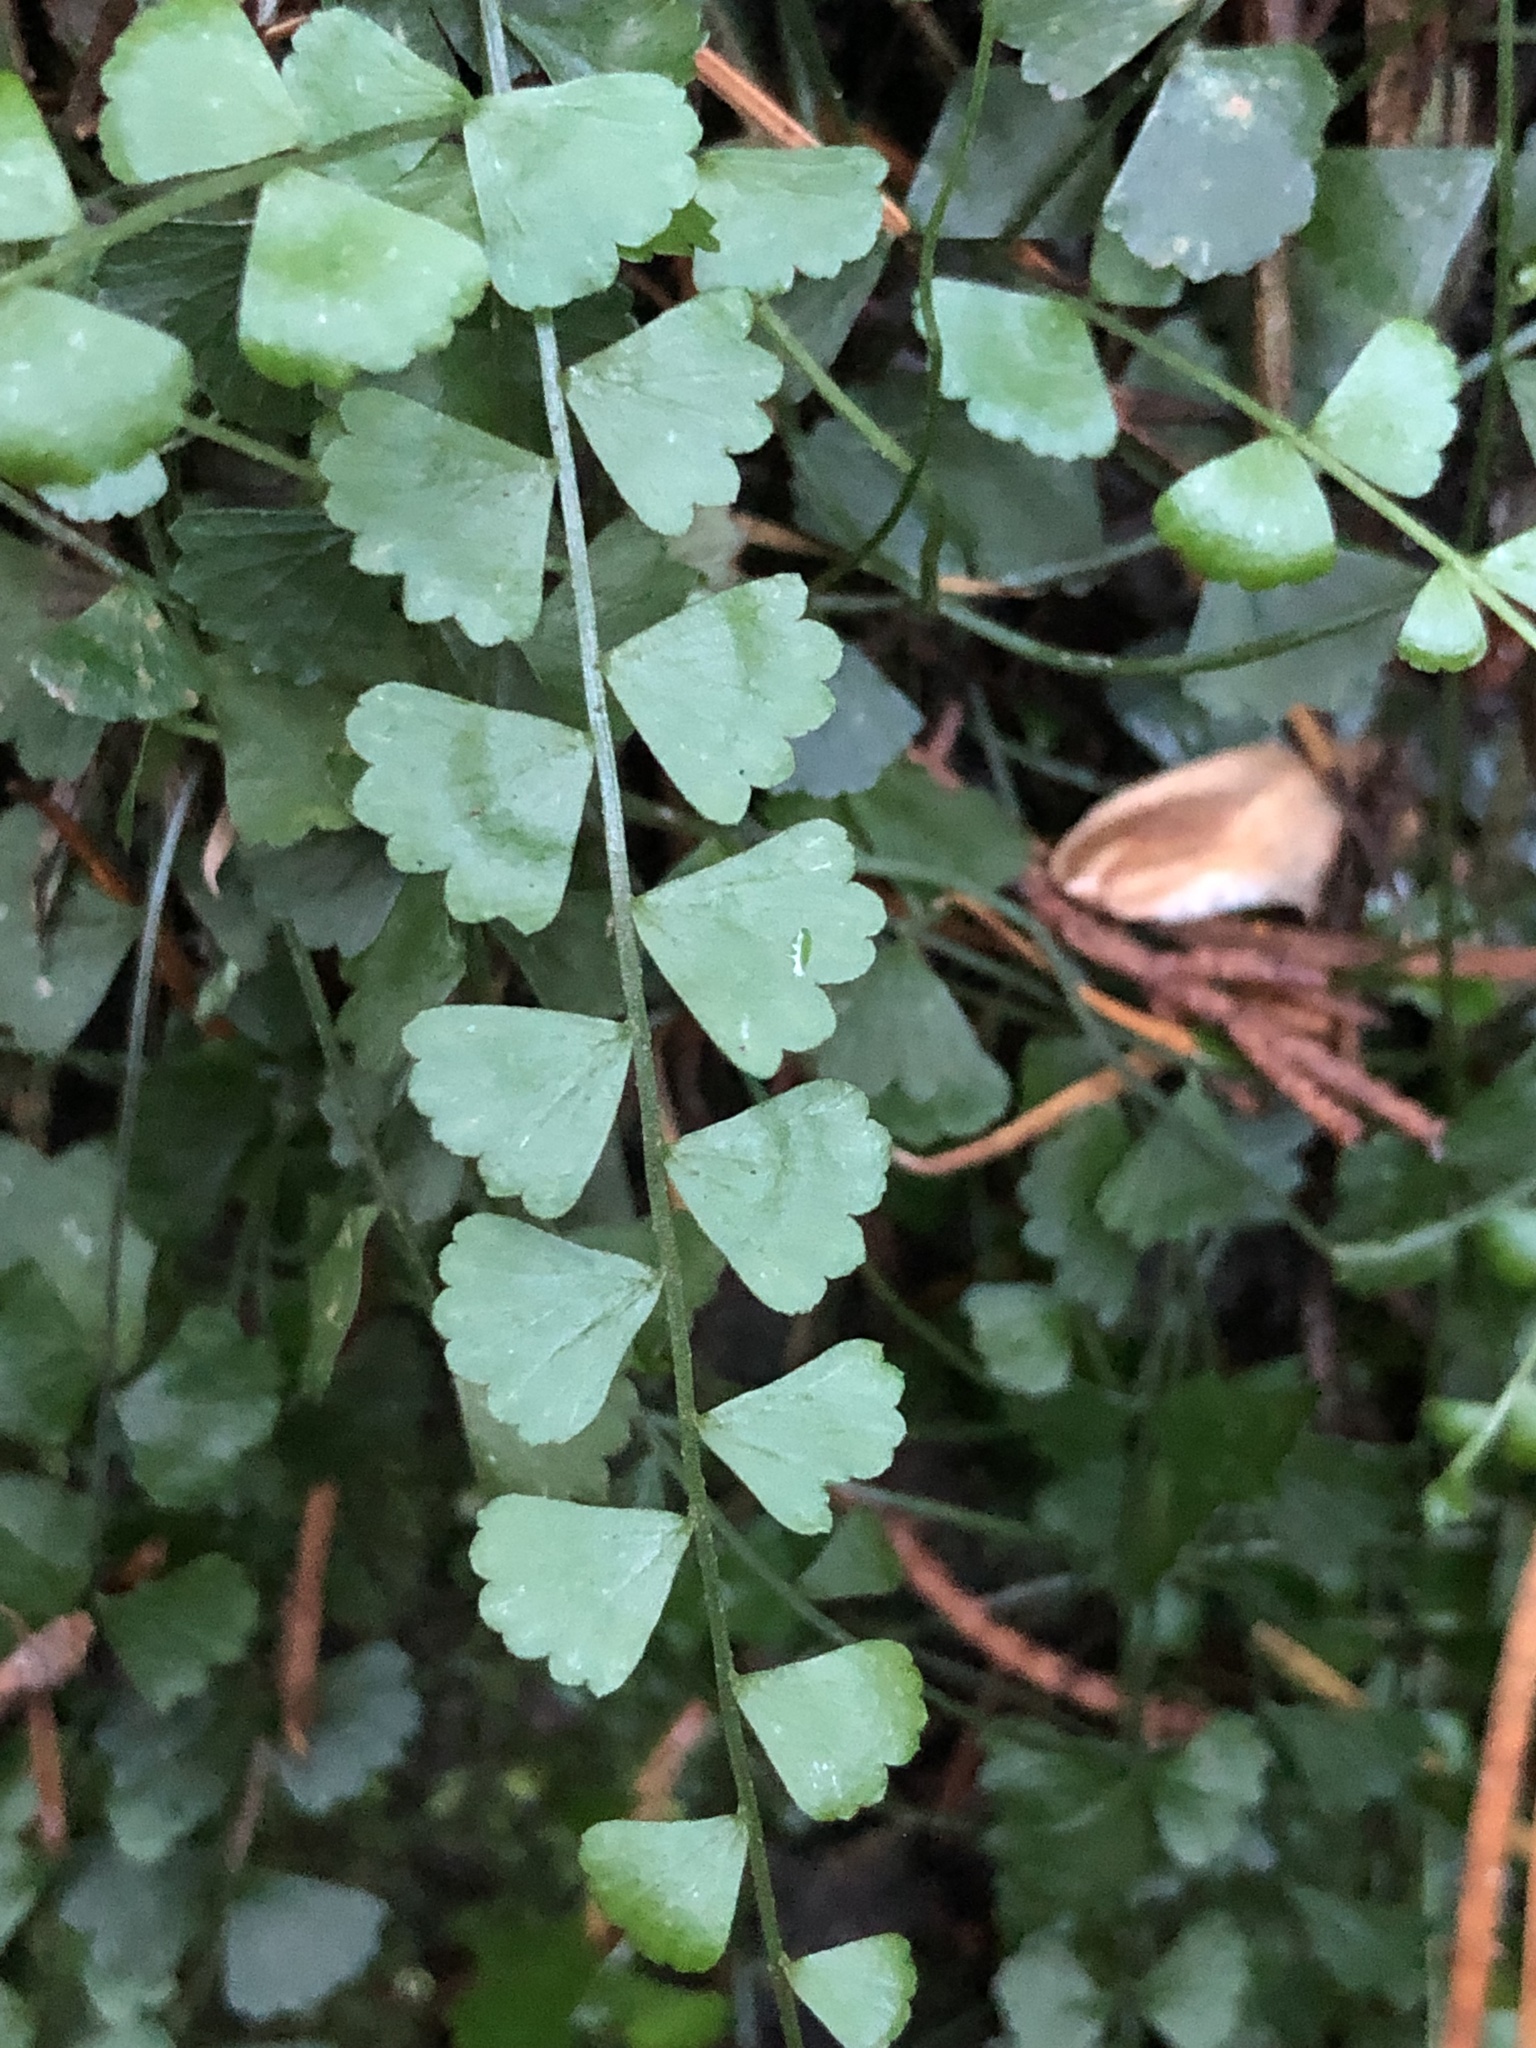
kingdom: Plantae
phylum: Tracheophyta
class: Polypodiopsida
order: Polypodiales
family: Aspleniaceae
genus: Asplenium
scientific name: Asplenium flabellifolium
